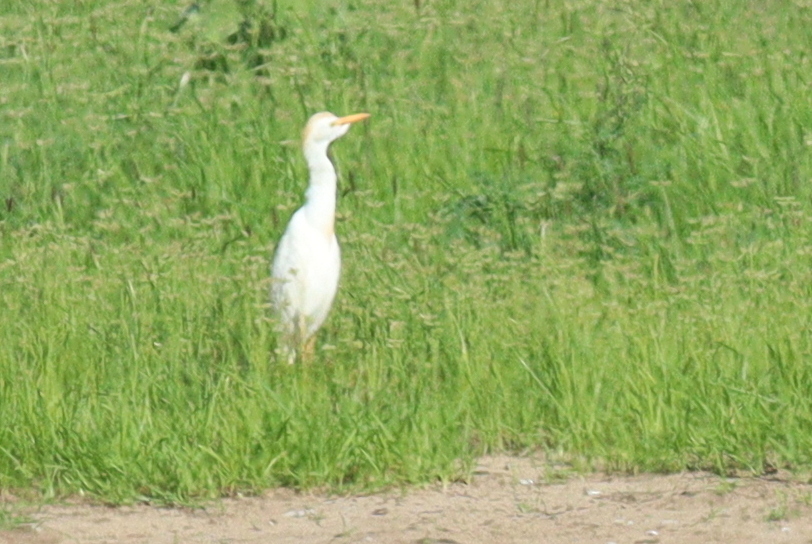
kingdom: Animalia
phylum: Chordata
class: Aves
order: Pelecaniformes
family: Ardeidae
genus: Bubulcus
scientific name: Bubulcus ibis
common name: Cattle egret
